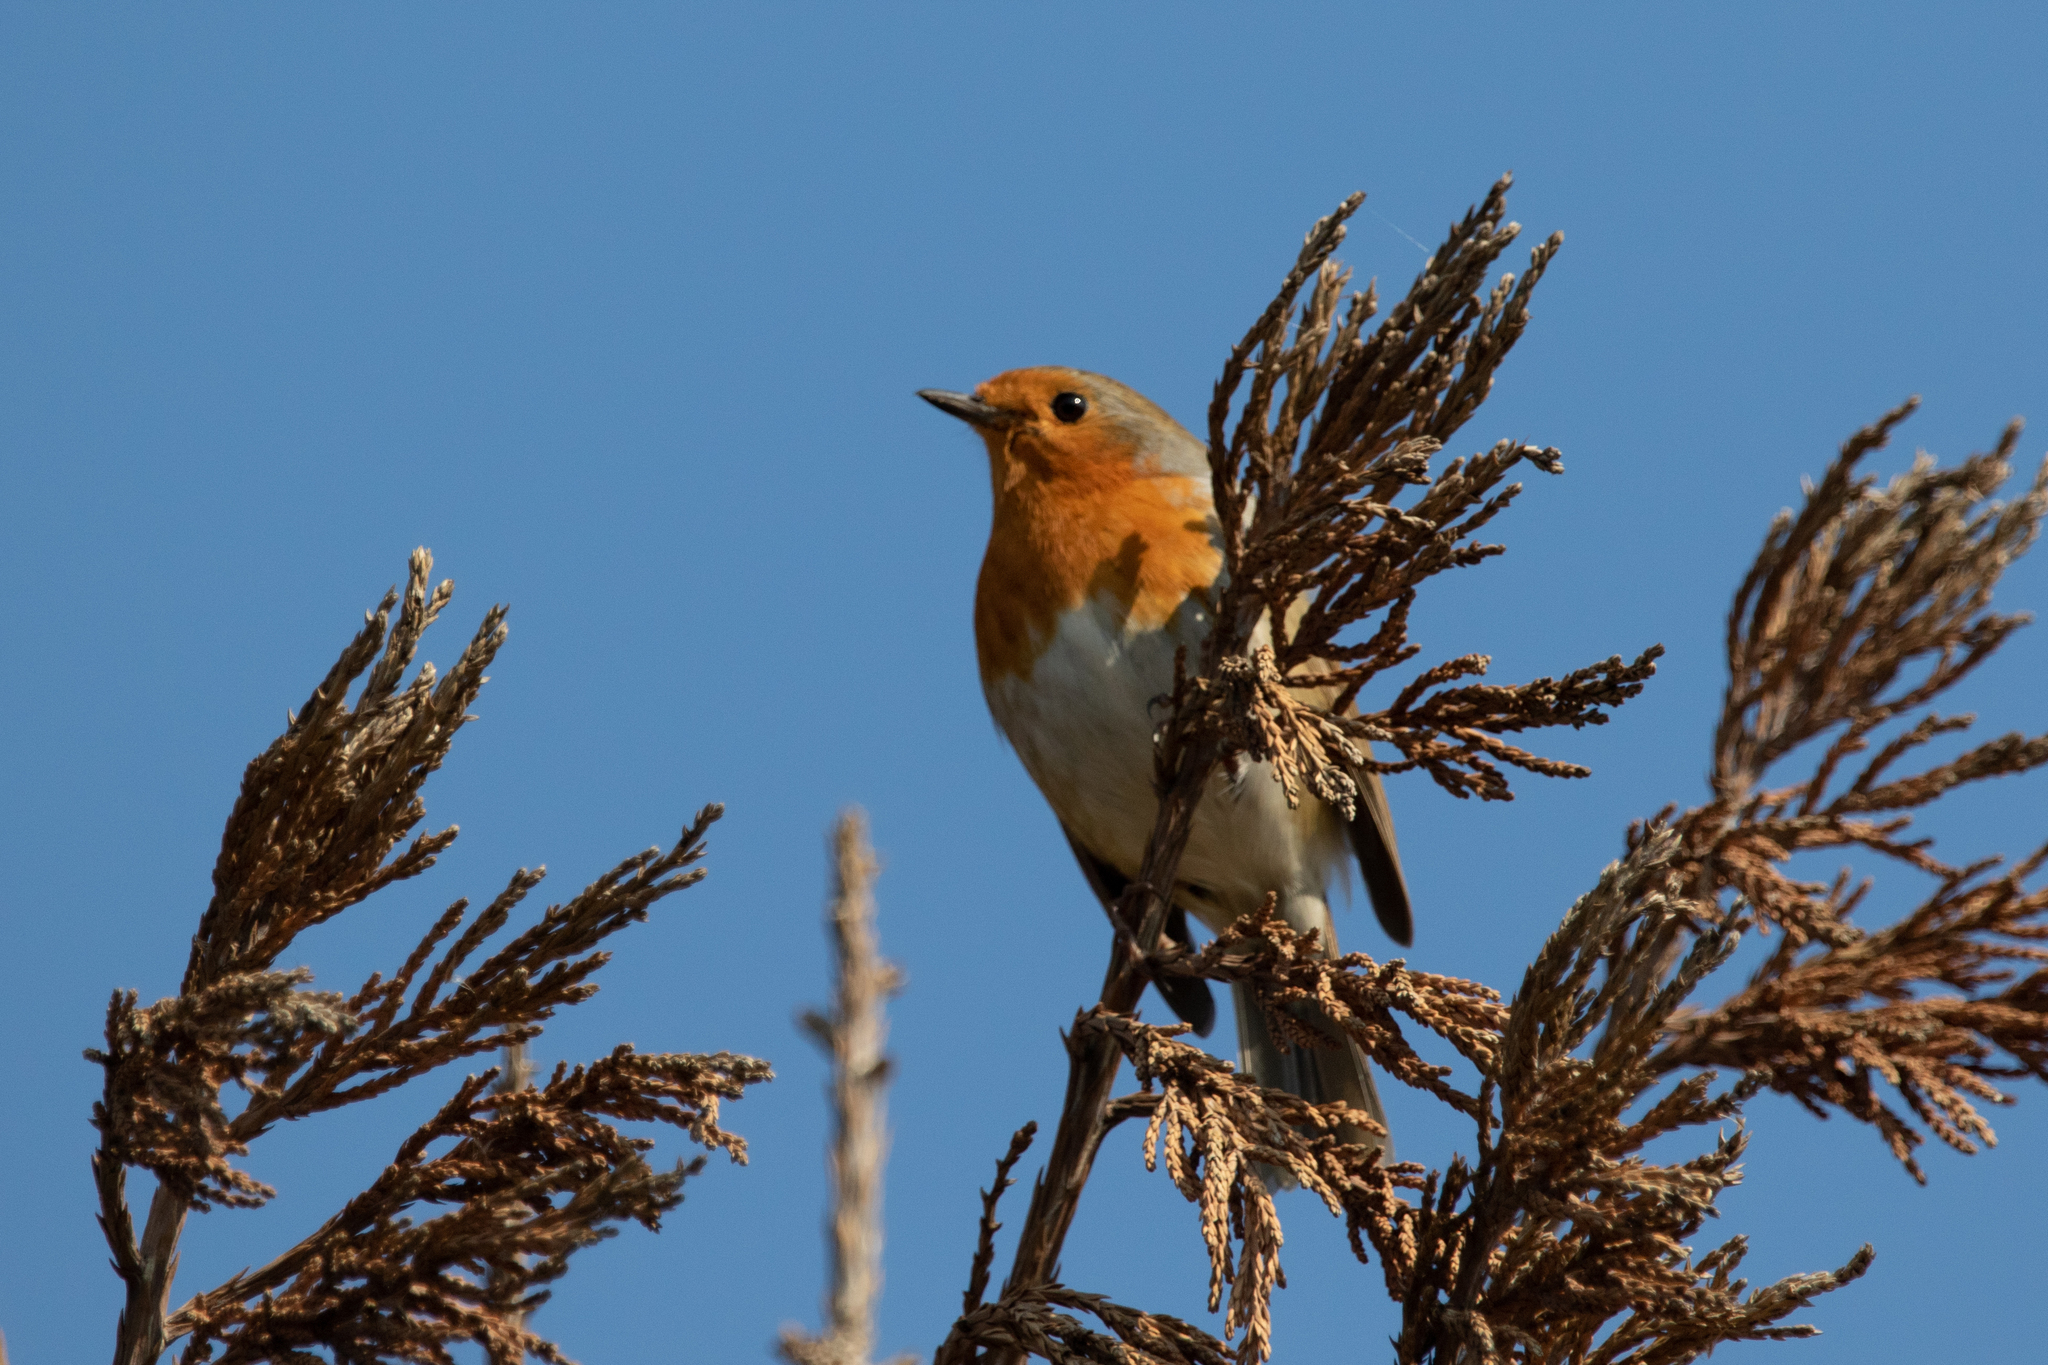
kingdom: Animalia
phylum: Chordata
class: Aves
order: Passeriformes
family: Muscicapidae
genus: Erithacus
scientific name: Erithacus rubecula
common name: European robin
